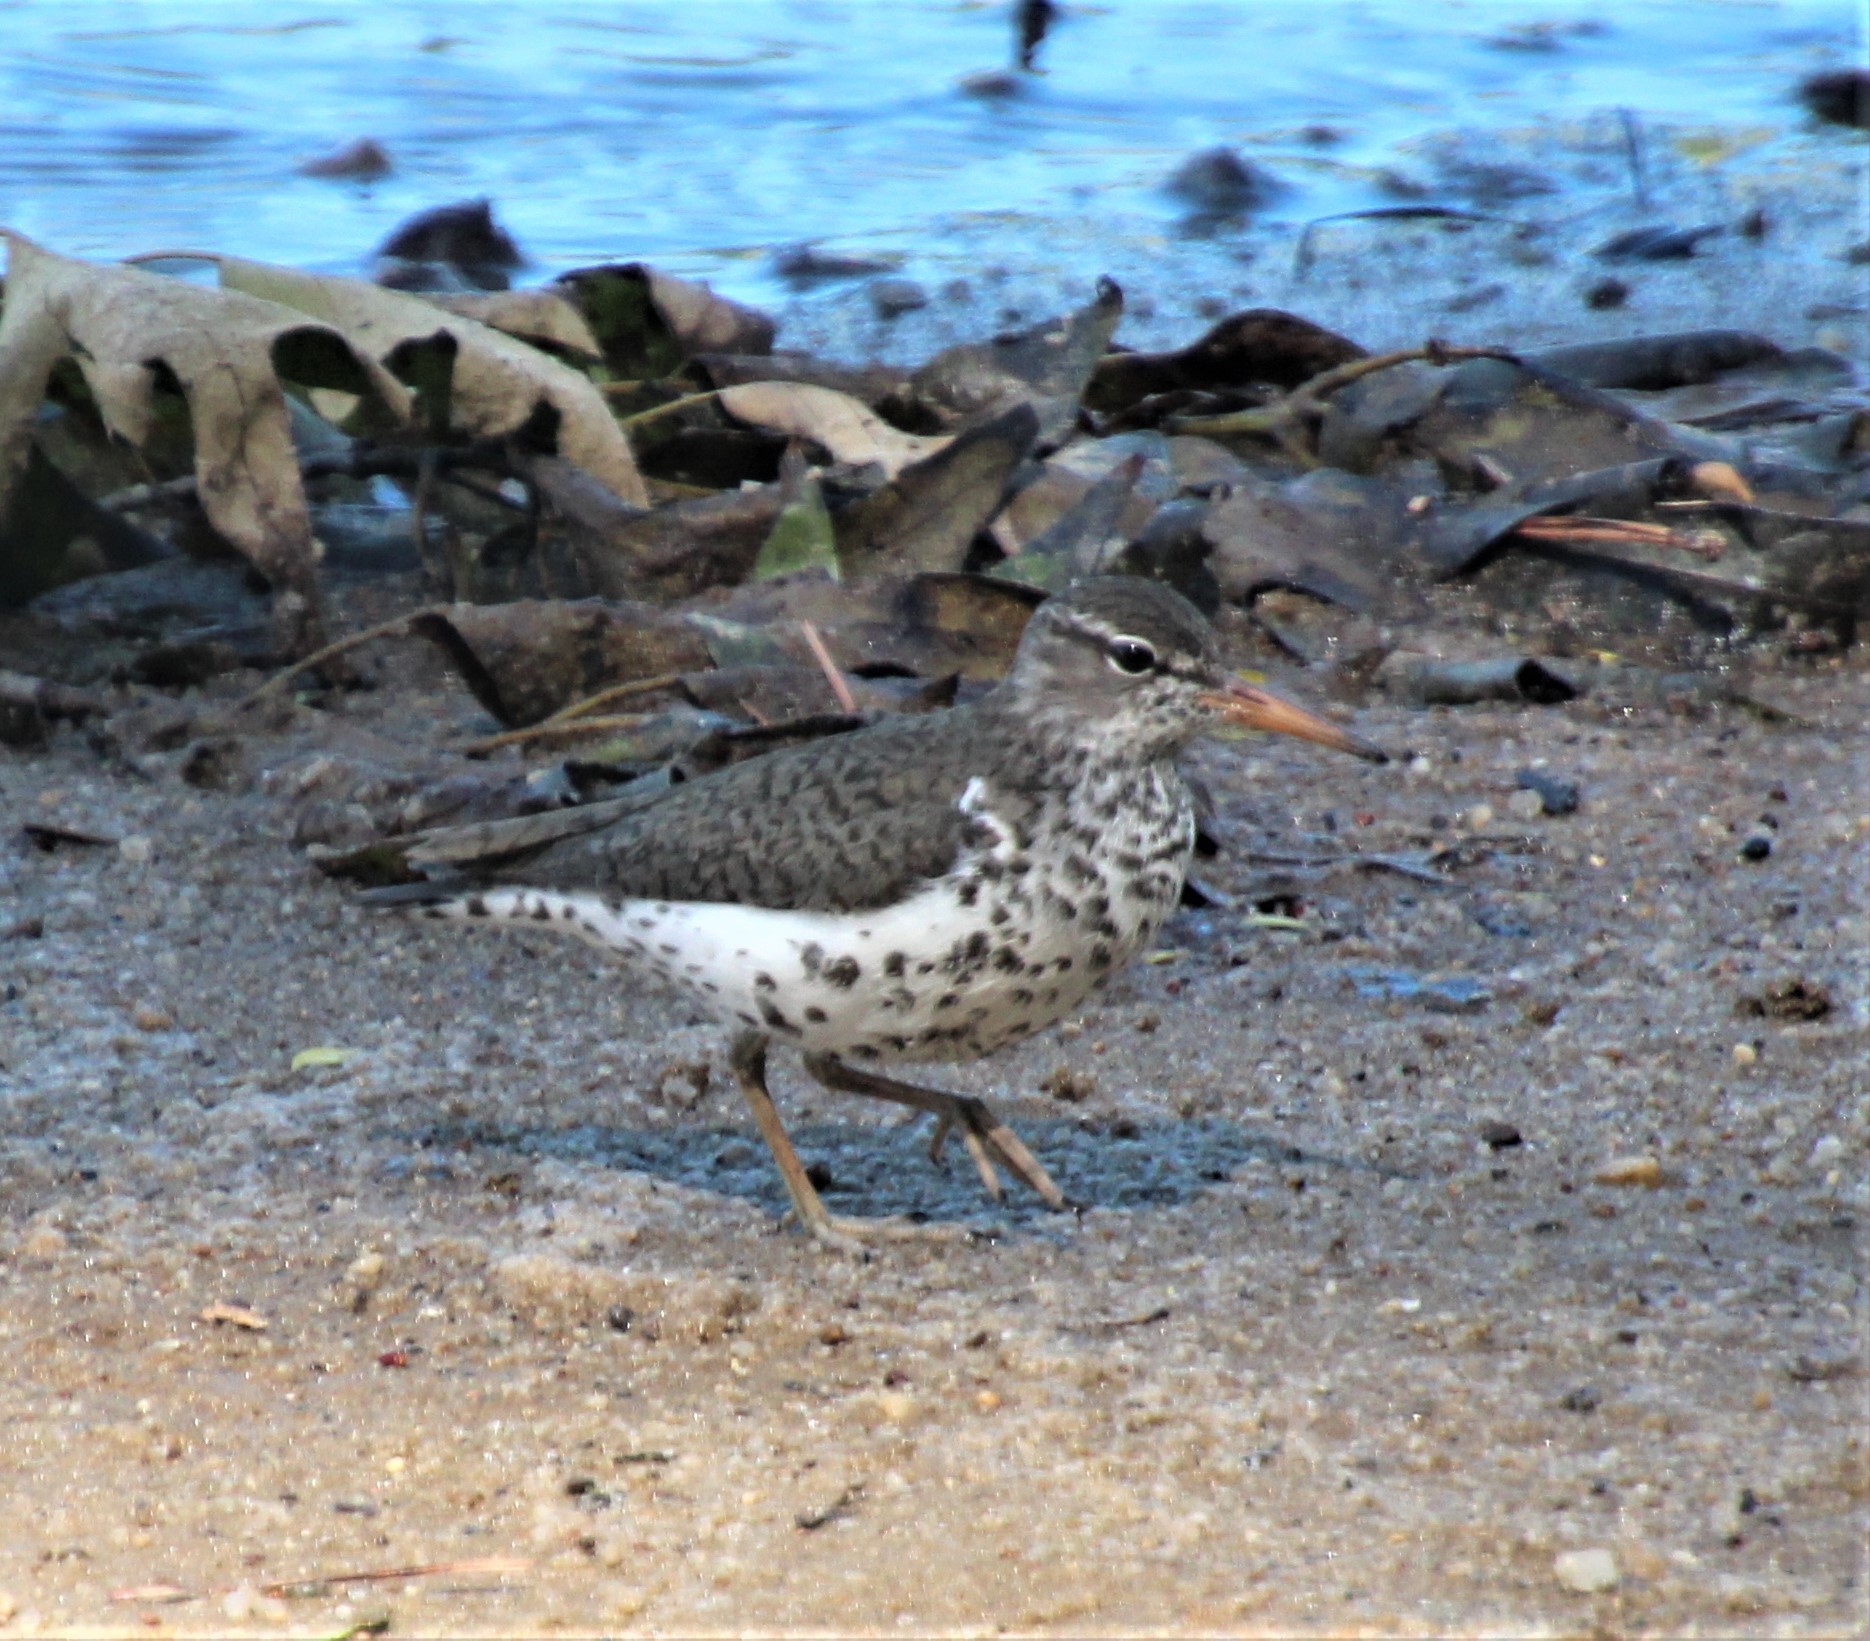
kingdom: Animalia
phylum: Chordata
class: Aves
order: Charadriiformes
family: Scolopacidae
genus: Actitis
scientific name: Actitis macularius
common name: Spotted sandpiper
